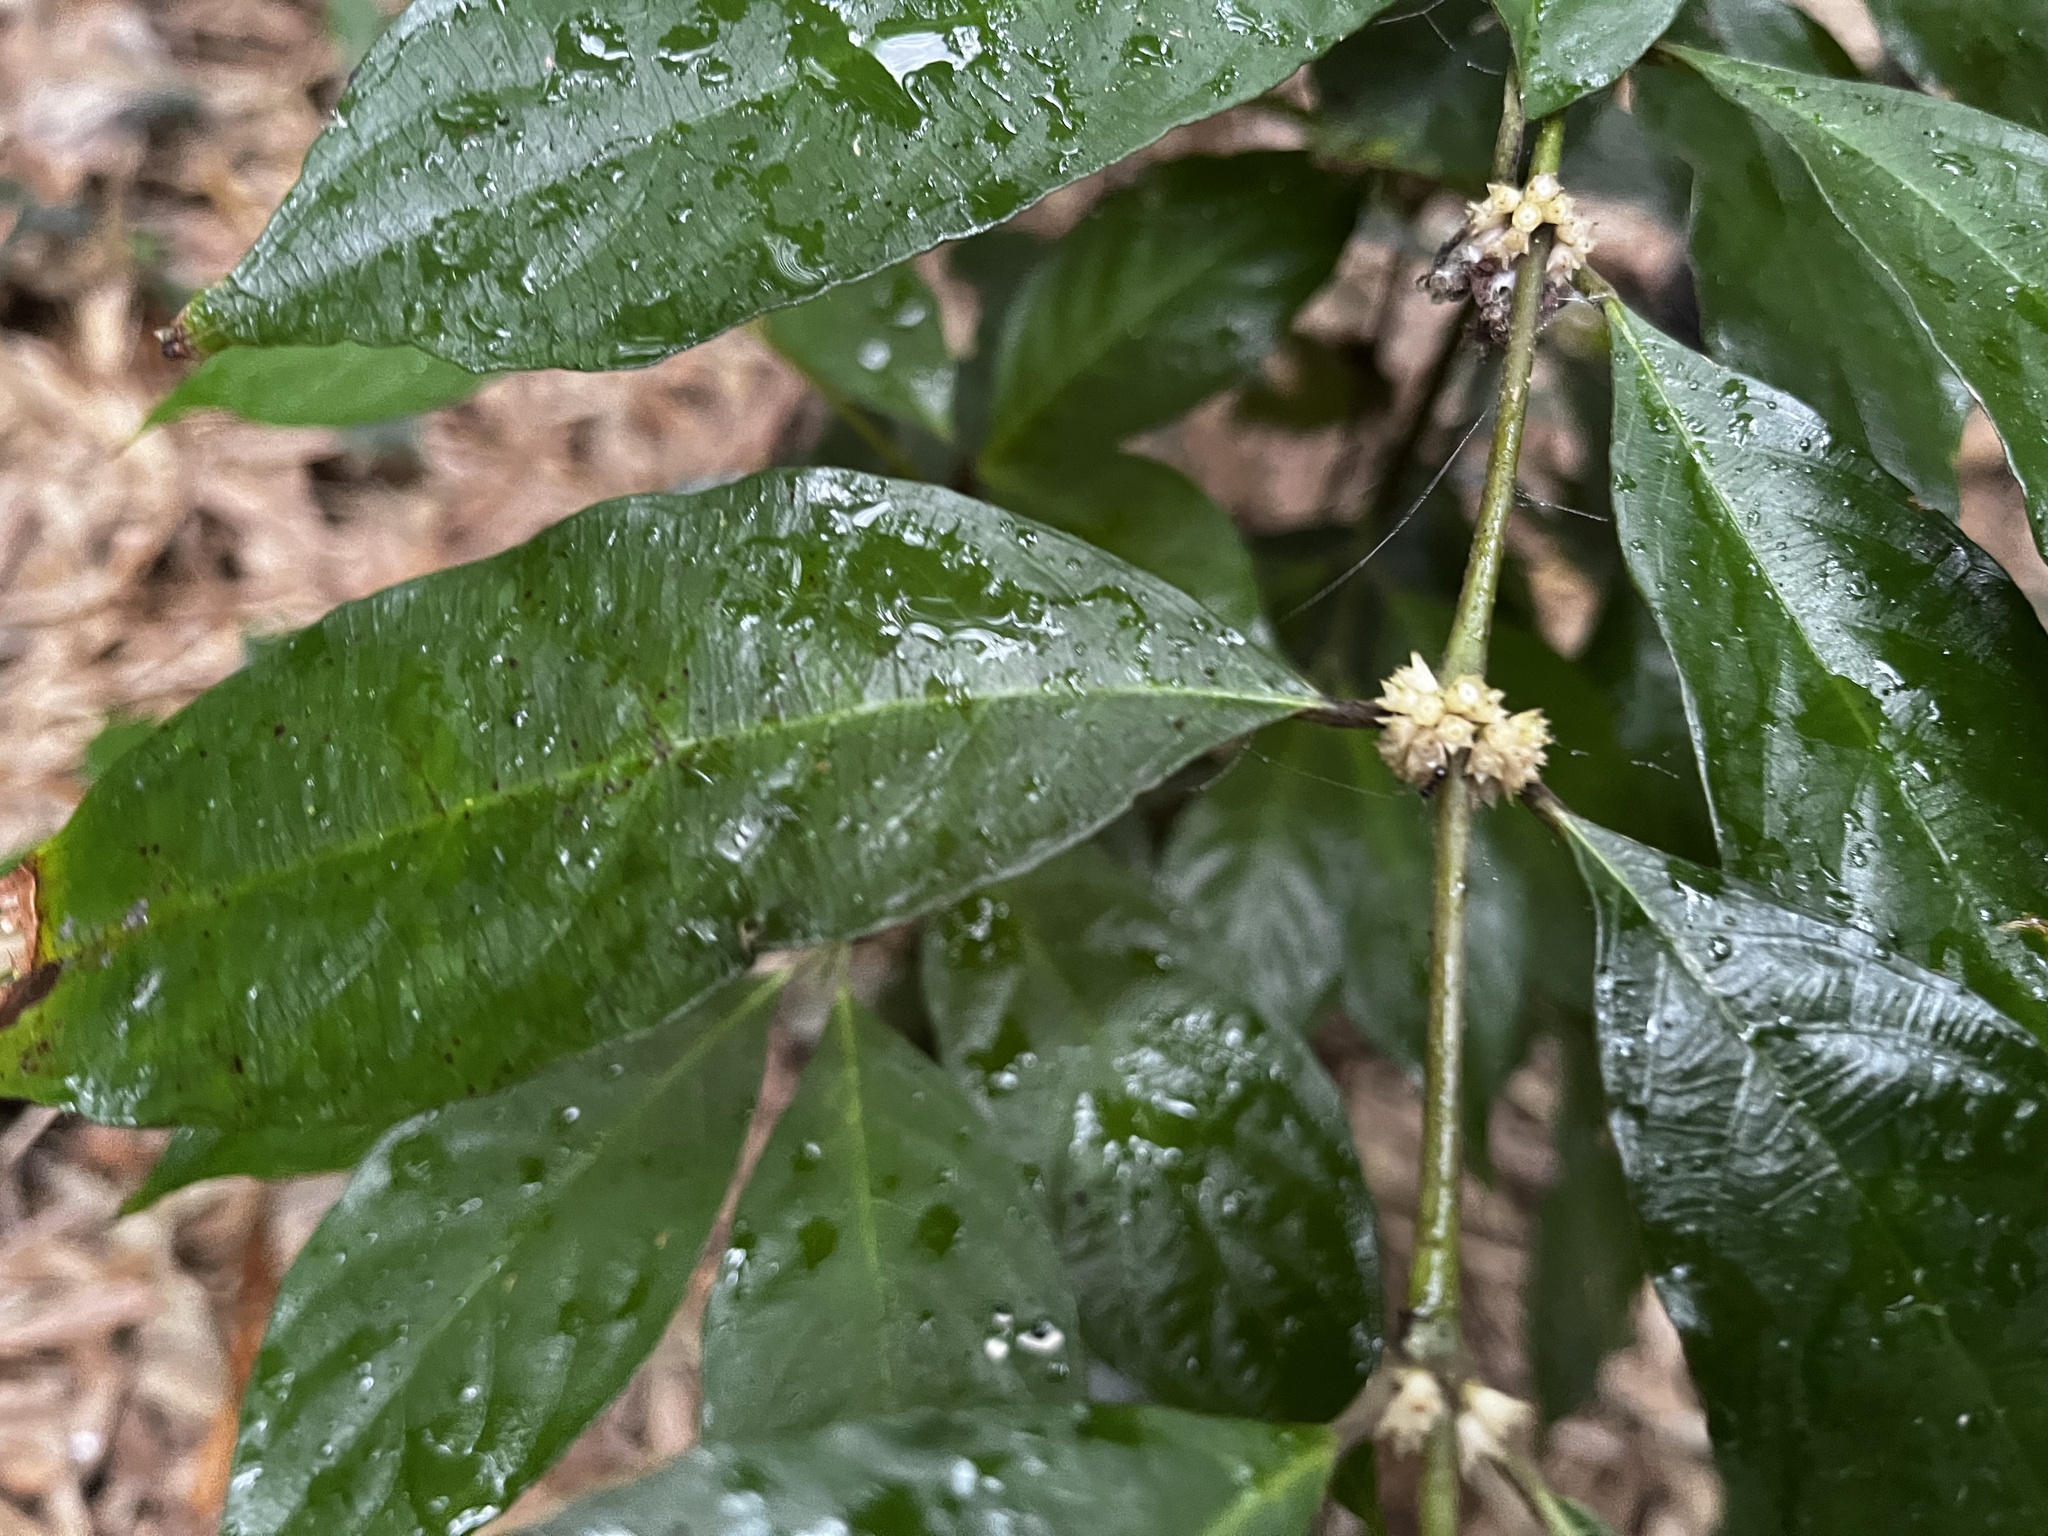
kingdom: Plantae
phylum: Tracheophyta
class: Magnoliopsida
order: Gentianales
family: Rubiaceae
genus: Lasianthus
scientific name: Lasianthus fordii
